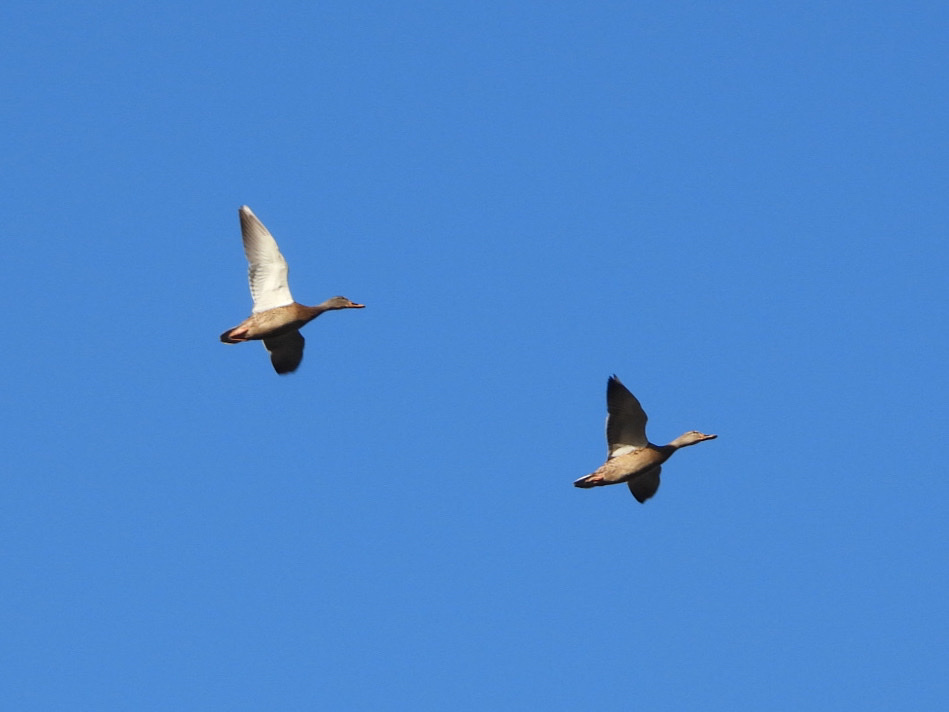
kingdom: Animalia
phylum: Chordata
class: Aves
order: Anseriformes
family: Anatidae
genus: Anas
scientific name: Anas platyrhynchos
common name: Mallard
